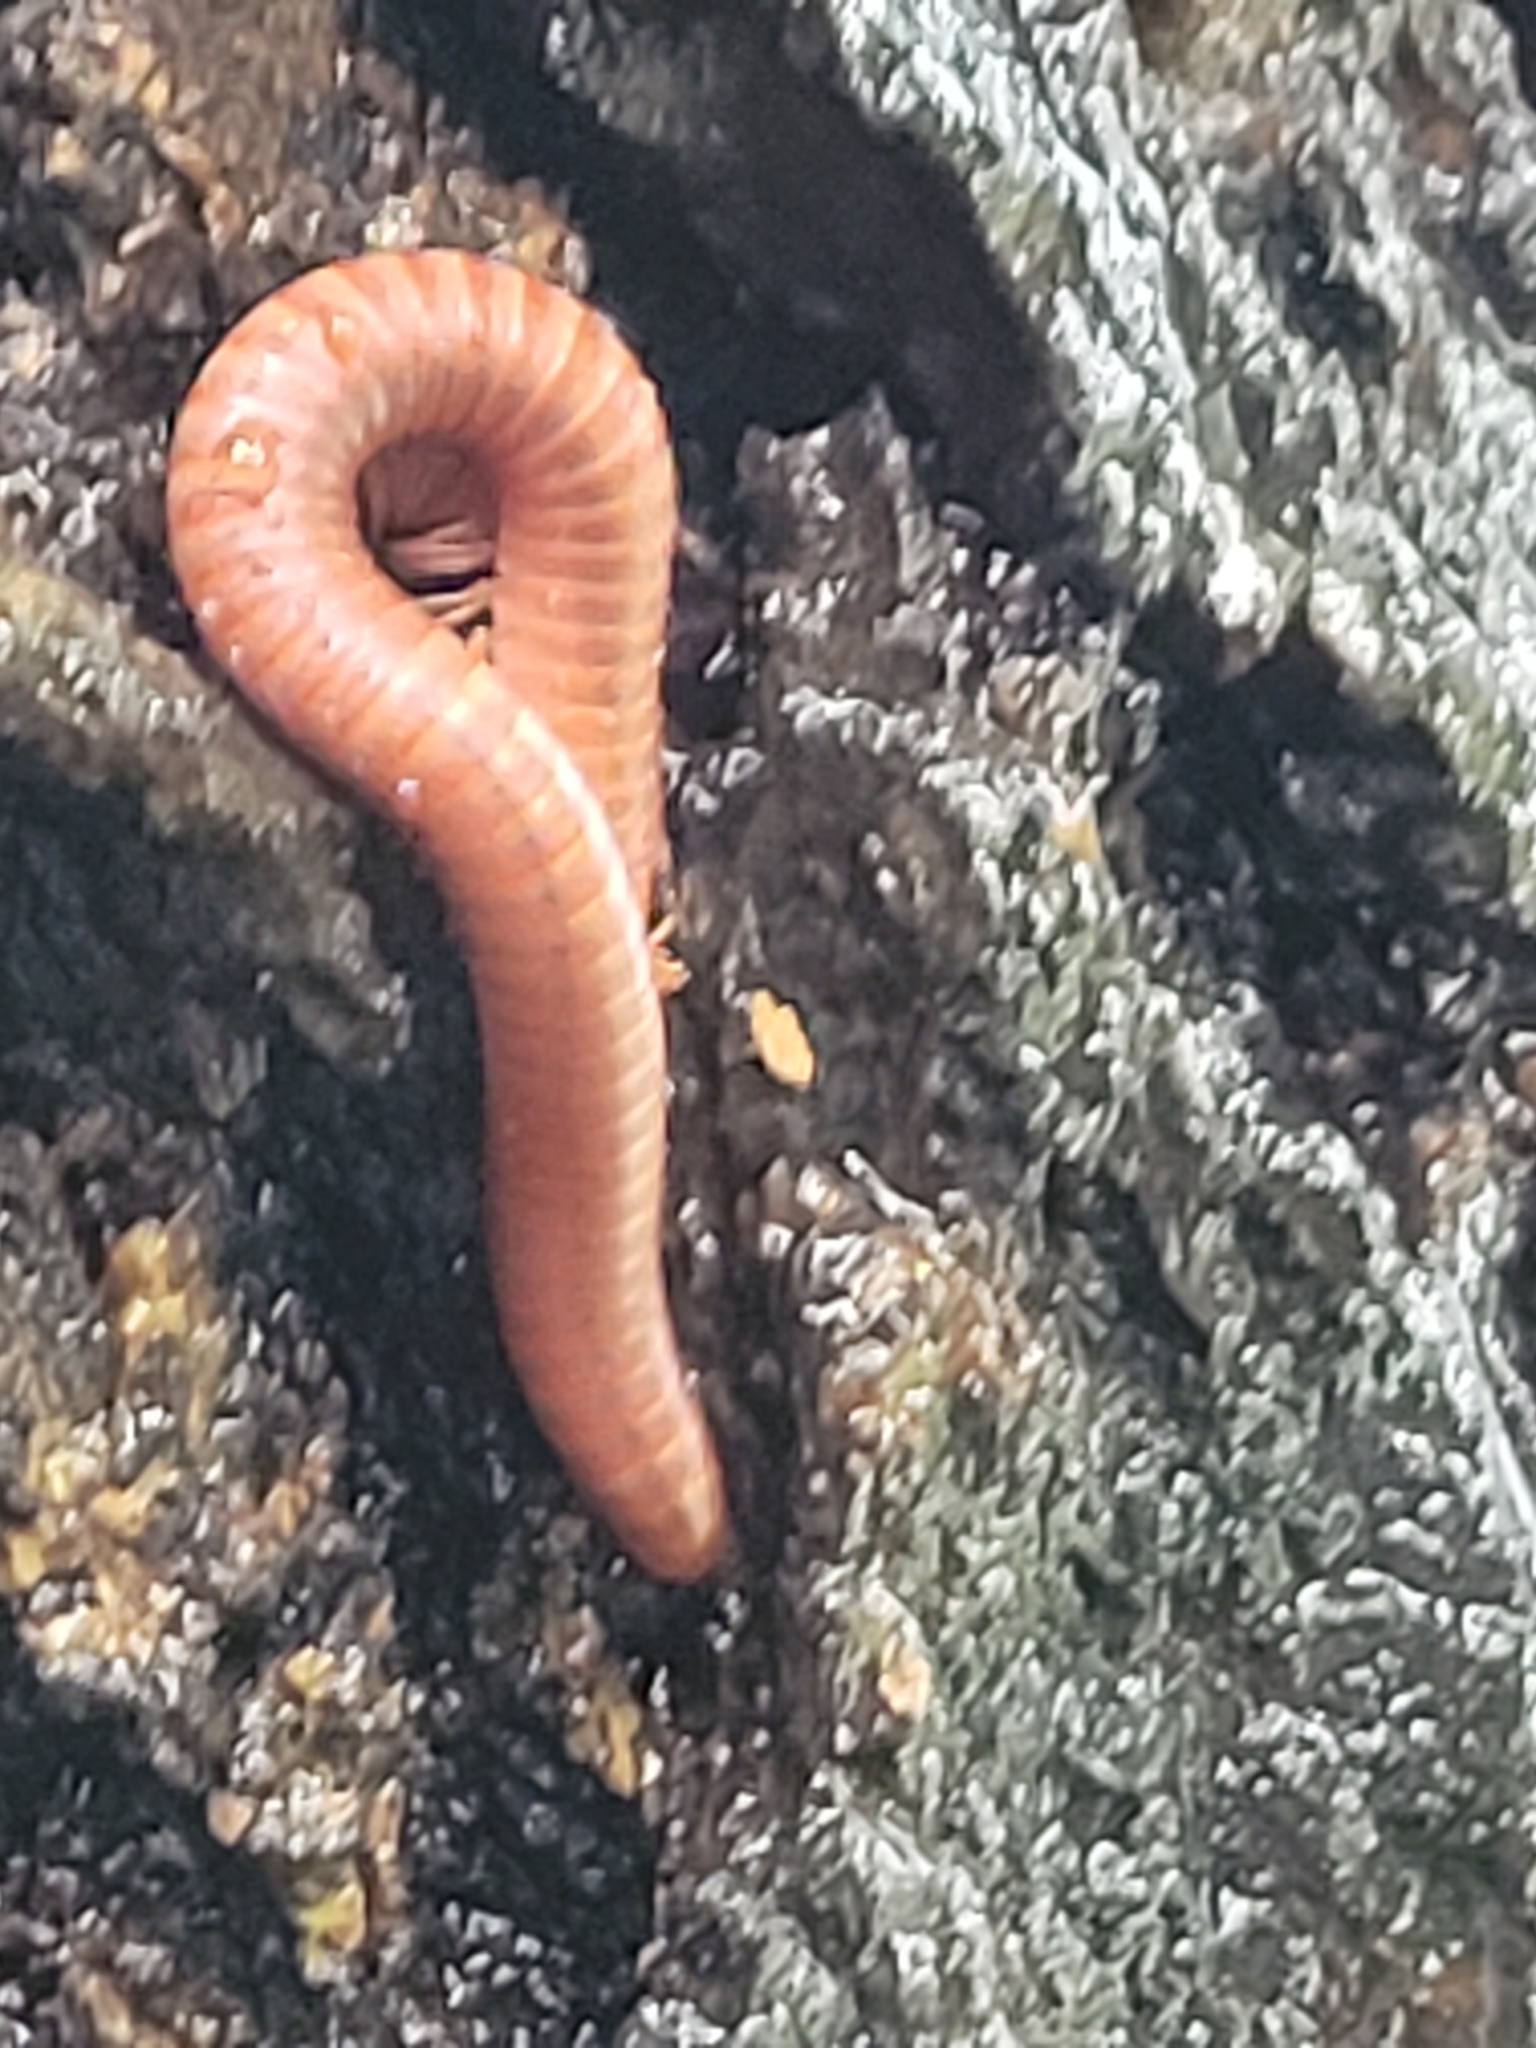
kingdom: Animalia
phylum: Arthropoda
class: Diplopoda
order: Spirobolida
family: Pachybolidae
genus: Trigoniulus
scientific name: Trigoniulus corallinus
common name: Millipede
